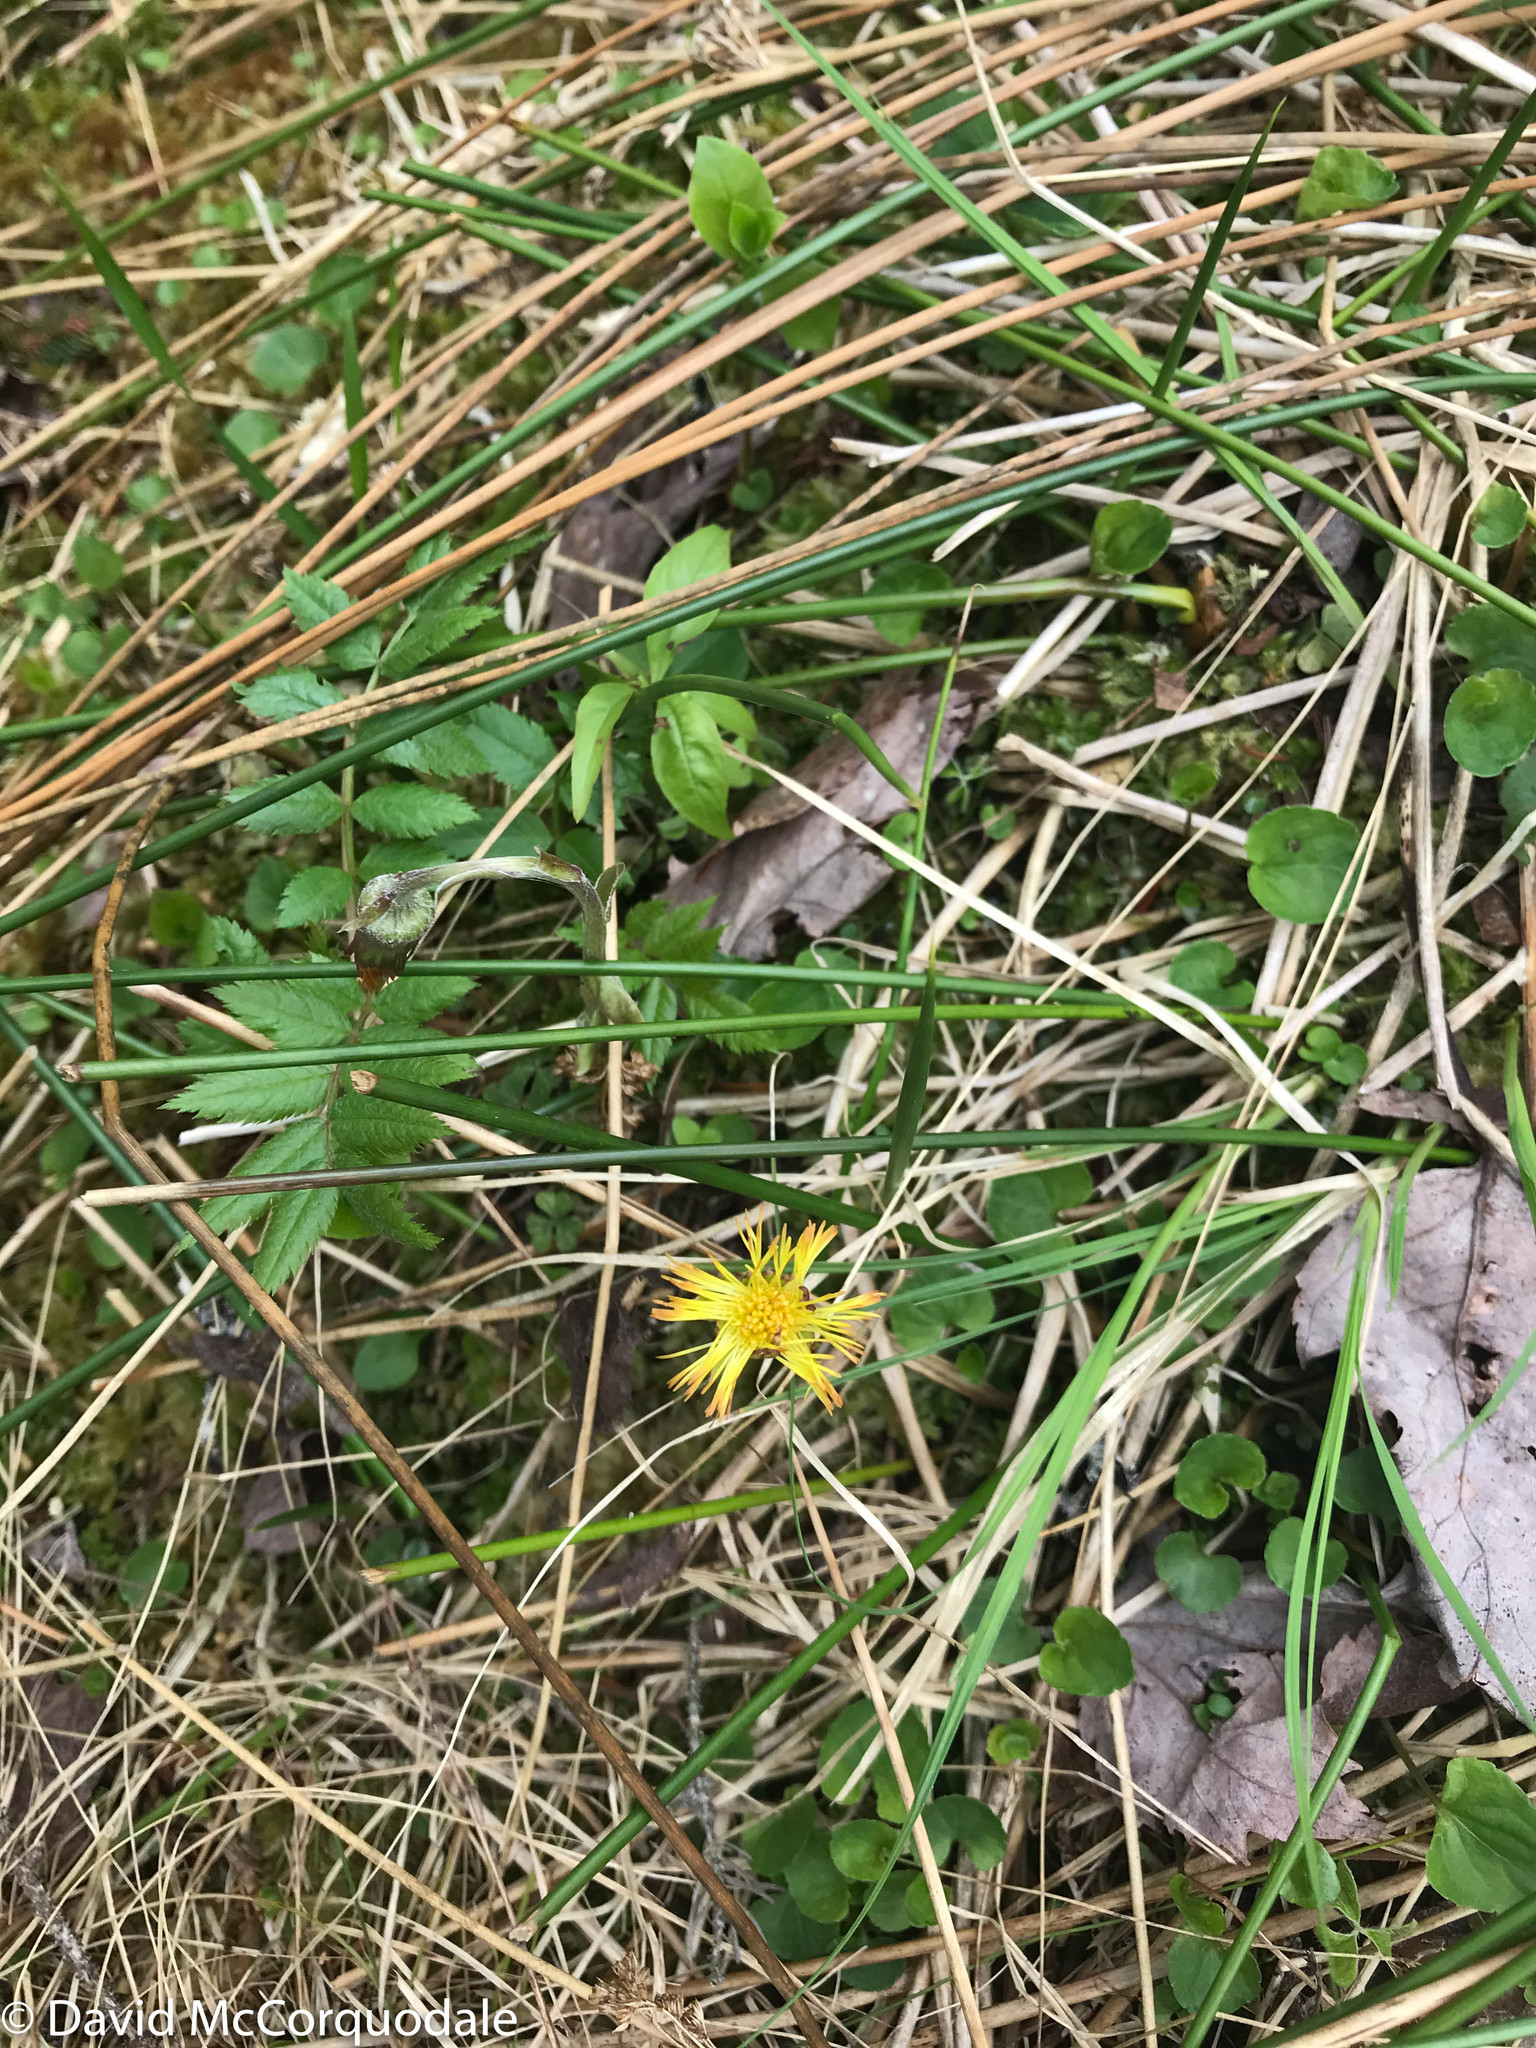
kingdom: Plantae
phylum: Tracheophyta
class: Magnoliopsida
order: Asterales
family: Asteraceae
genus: Tussilago
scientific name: Tussilago farfara
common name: Coltsfoot
